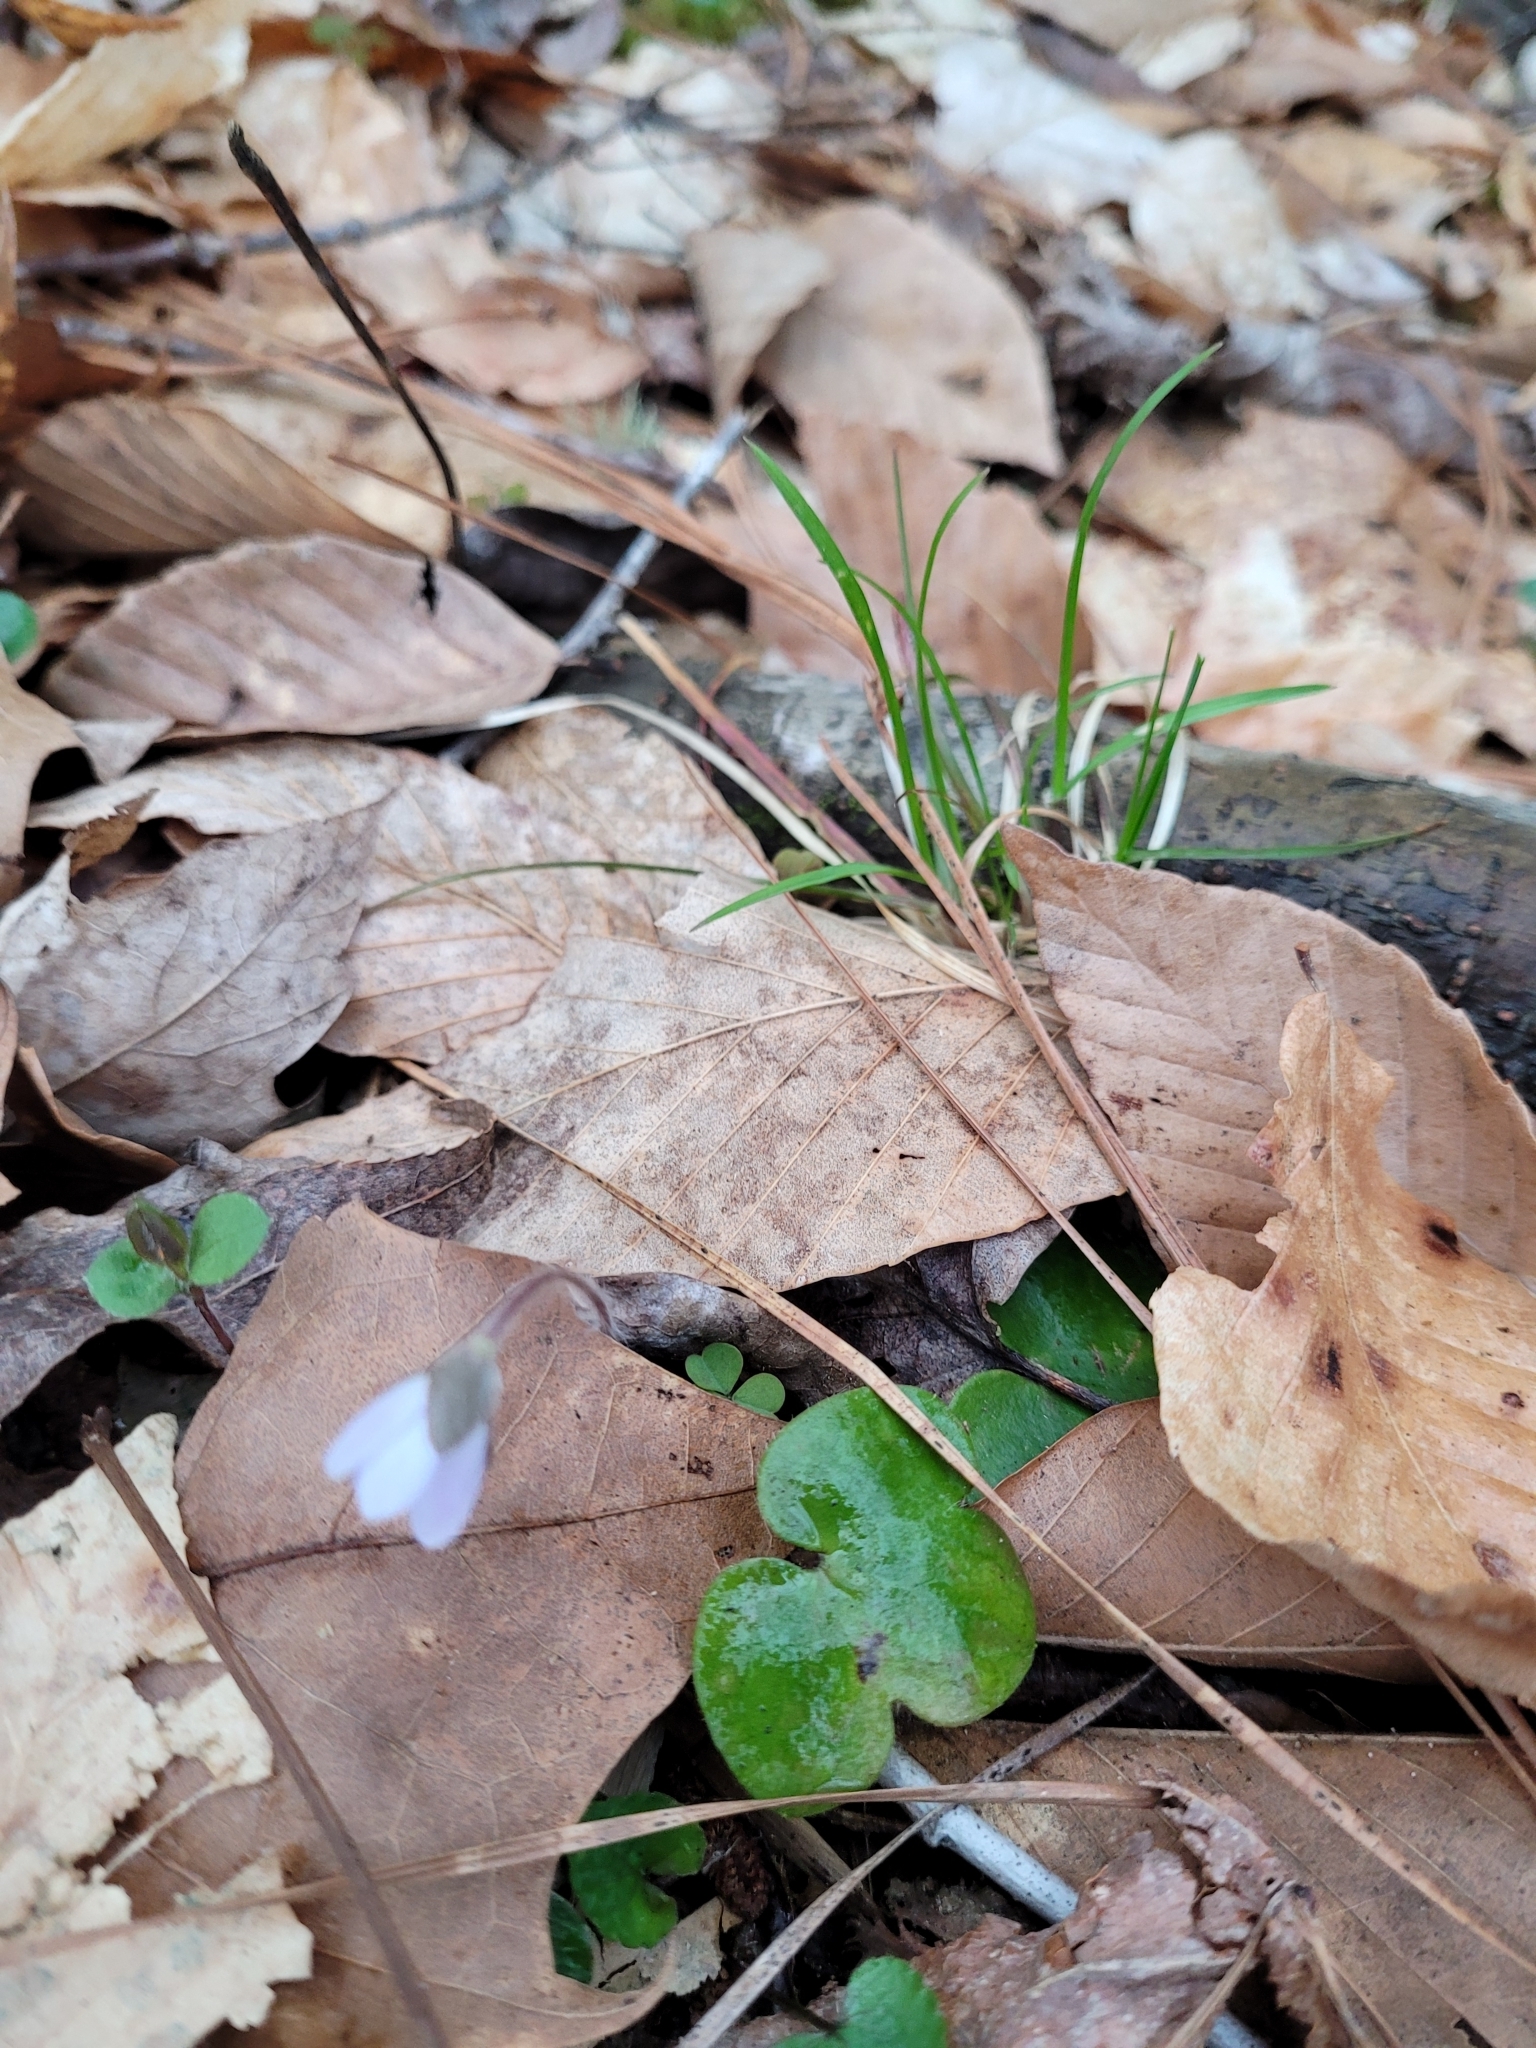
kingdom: Plantae
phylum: Tracheophyta
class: Magnoliopsida
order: Ranunculales
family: Ranunculaceae
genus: Hepatica
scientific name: Hepatica americana
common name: American hepatica
